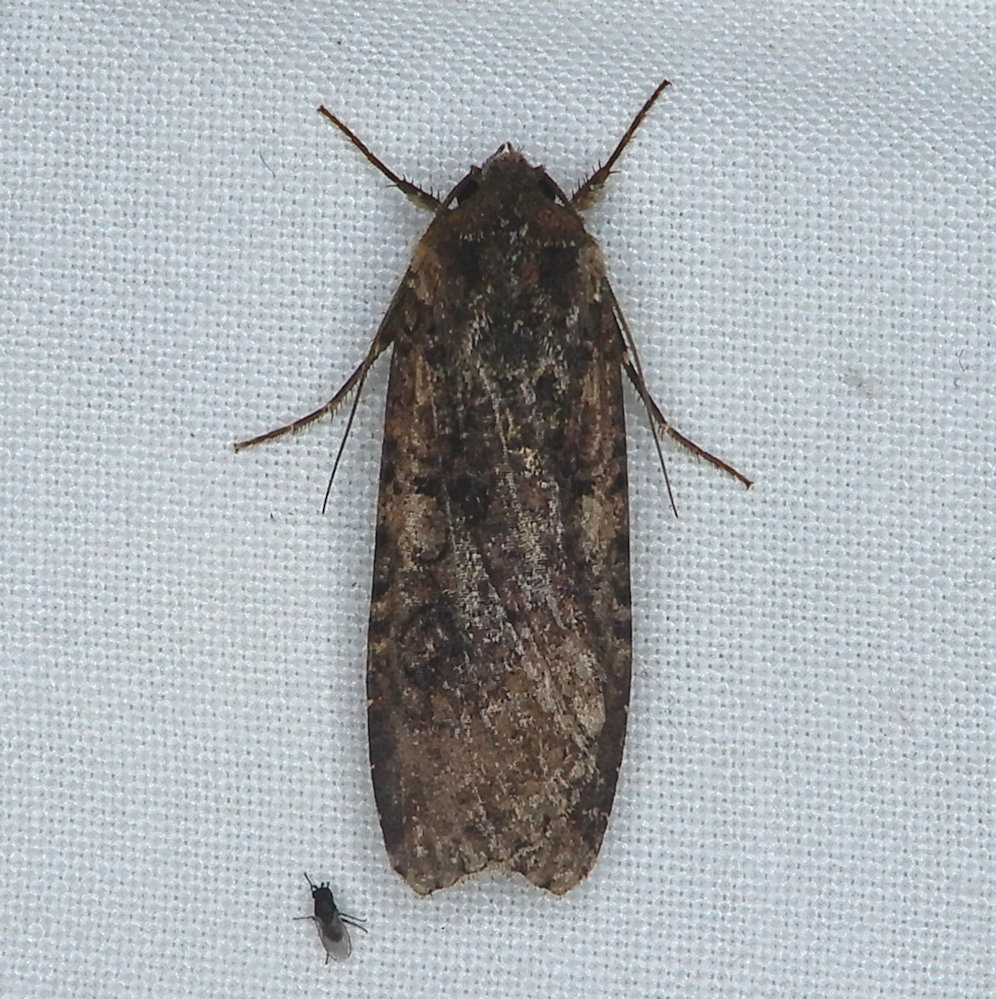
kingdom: Animalia
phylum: Arthropoda
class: Insecta
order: Lepidoptera
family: Noctuidae
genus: Peridroma
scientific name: Peridroma saucia
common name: Pearly underwing
